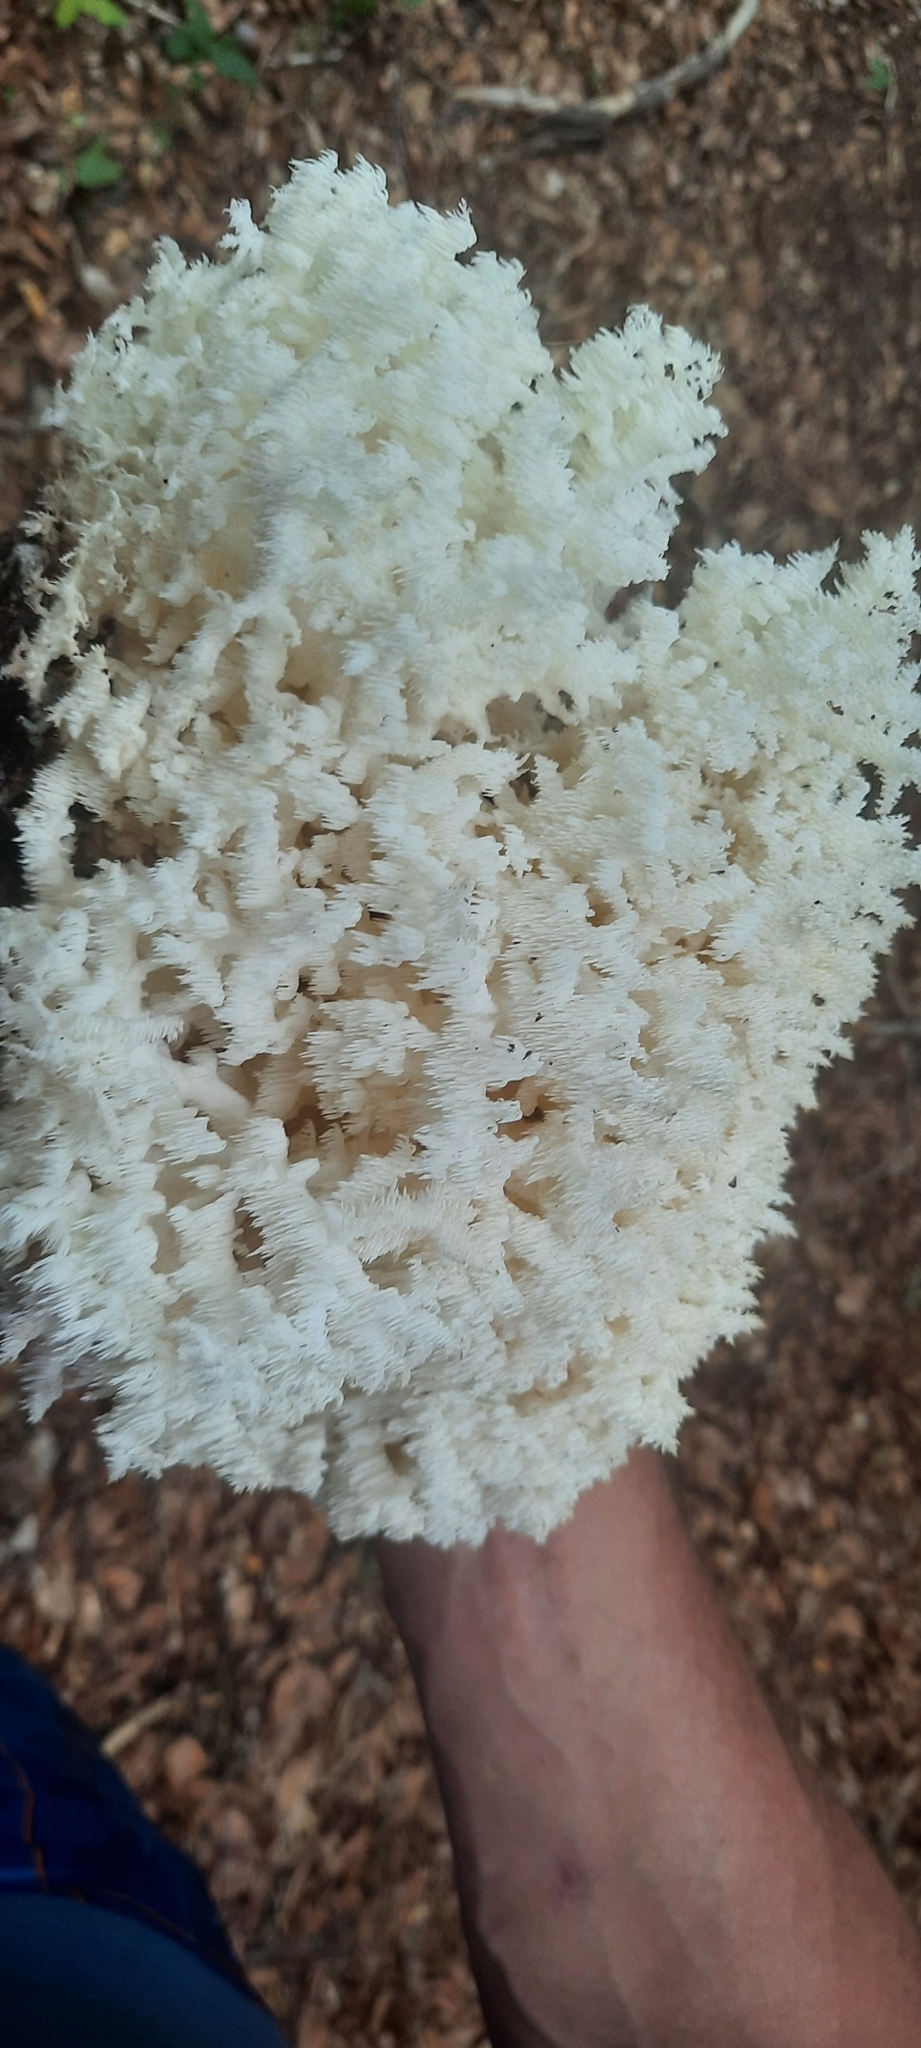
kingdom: Fungi
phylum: Basidiomycota
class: Agaricomycetes
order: Russulales
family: Hericiaceae
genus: Hericium
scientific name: Hericium coralloides
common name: Coral tooth
